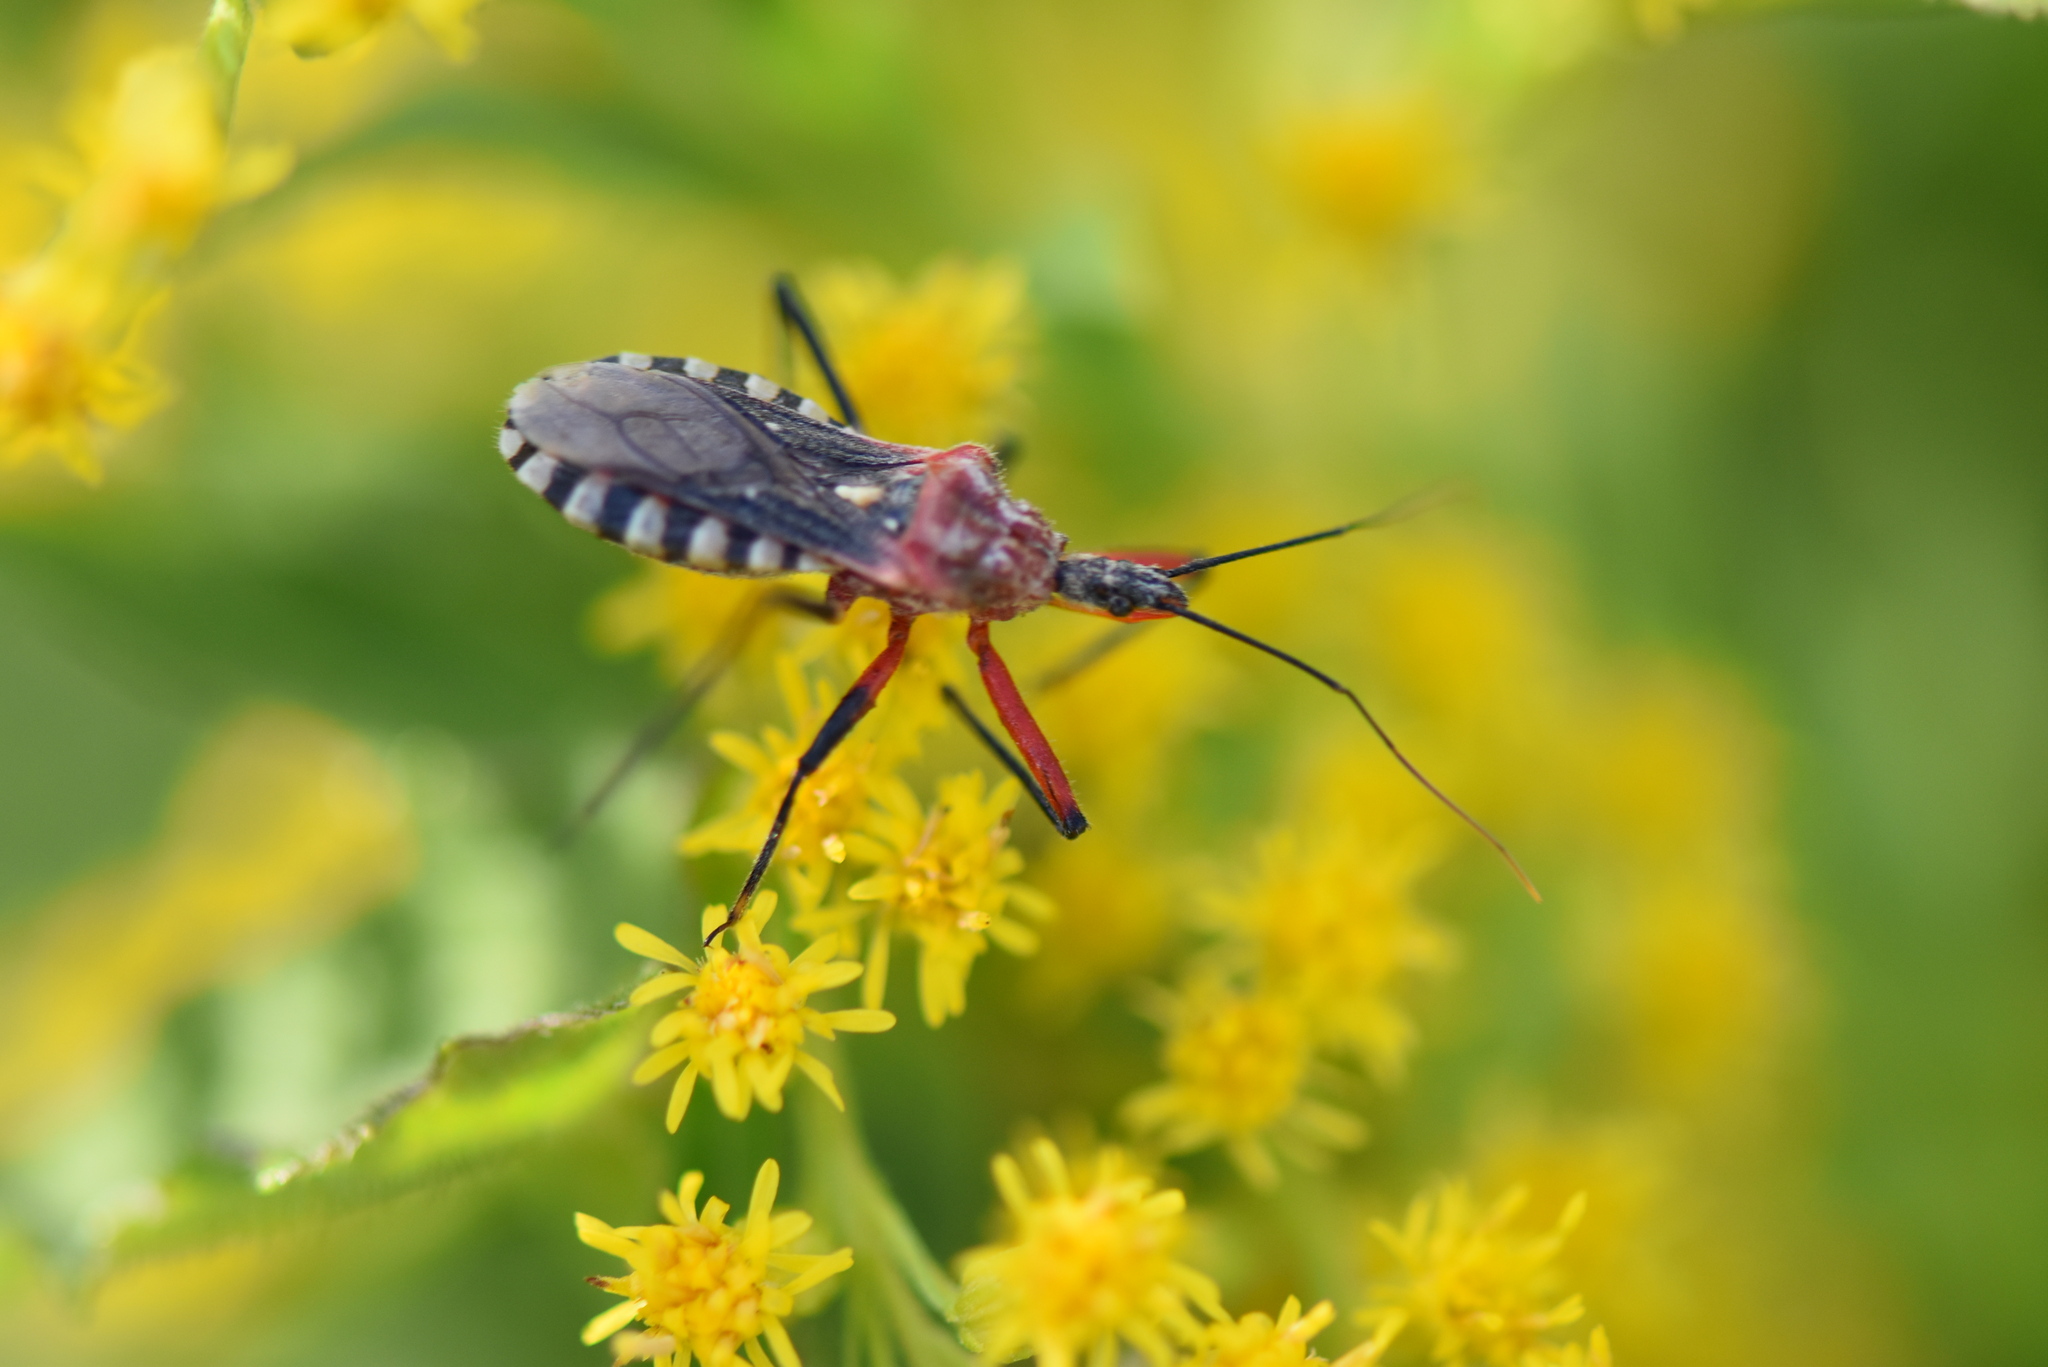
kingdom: Animalia
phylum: Arthropoda
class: Insecta
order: Hemiptera
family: Reduviidae
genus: Cosmoclopius
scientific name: Cosmoclopius poecilus
